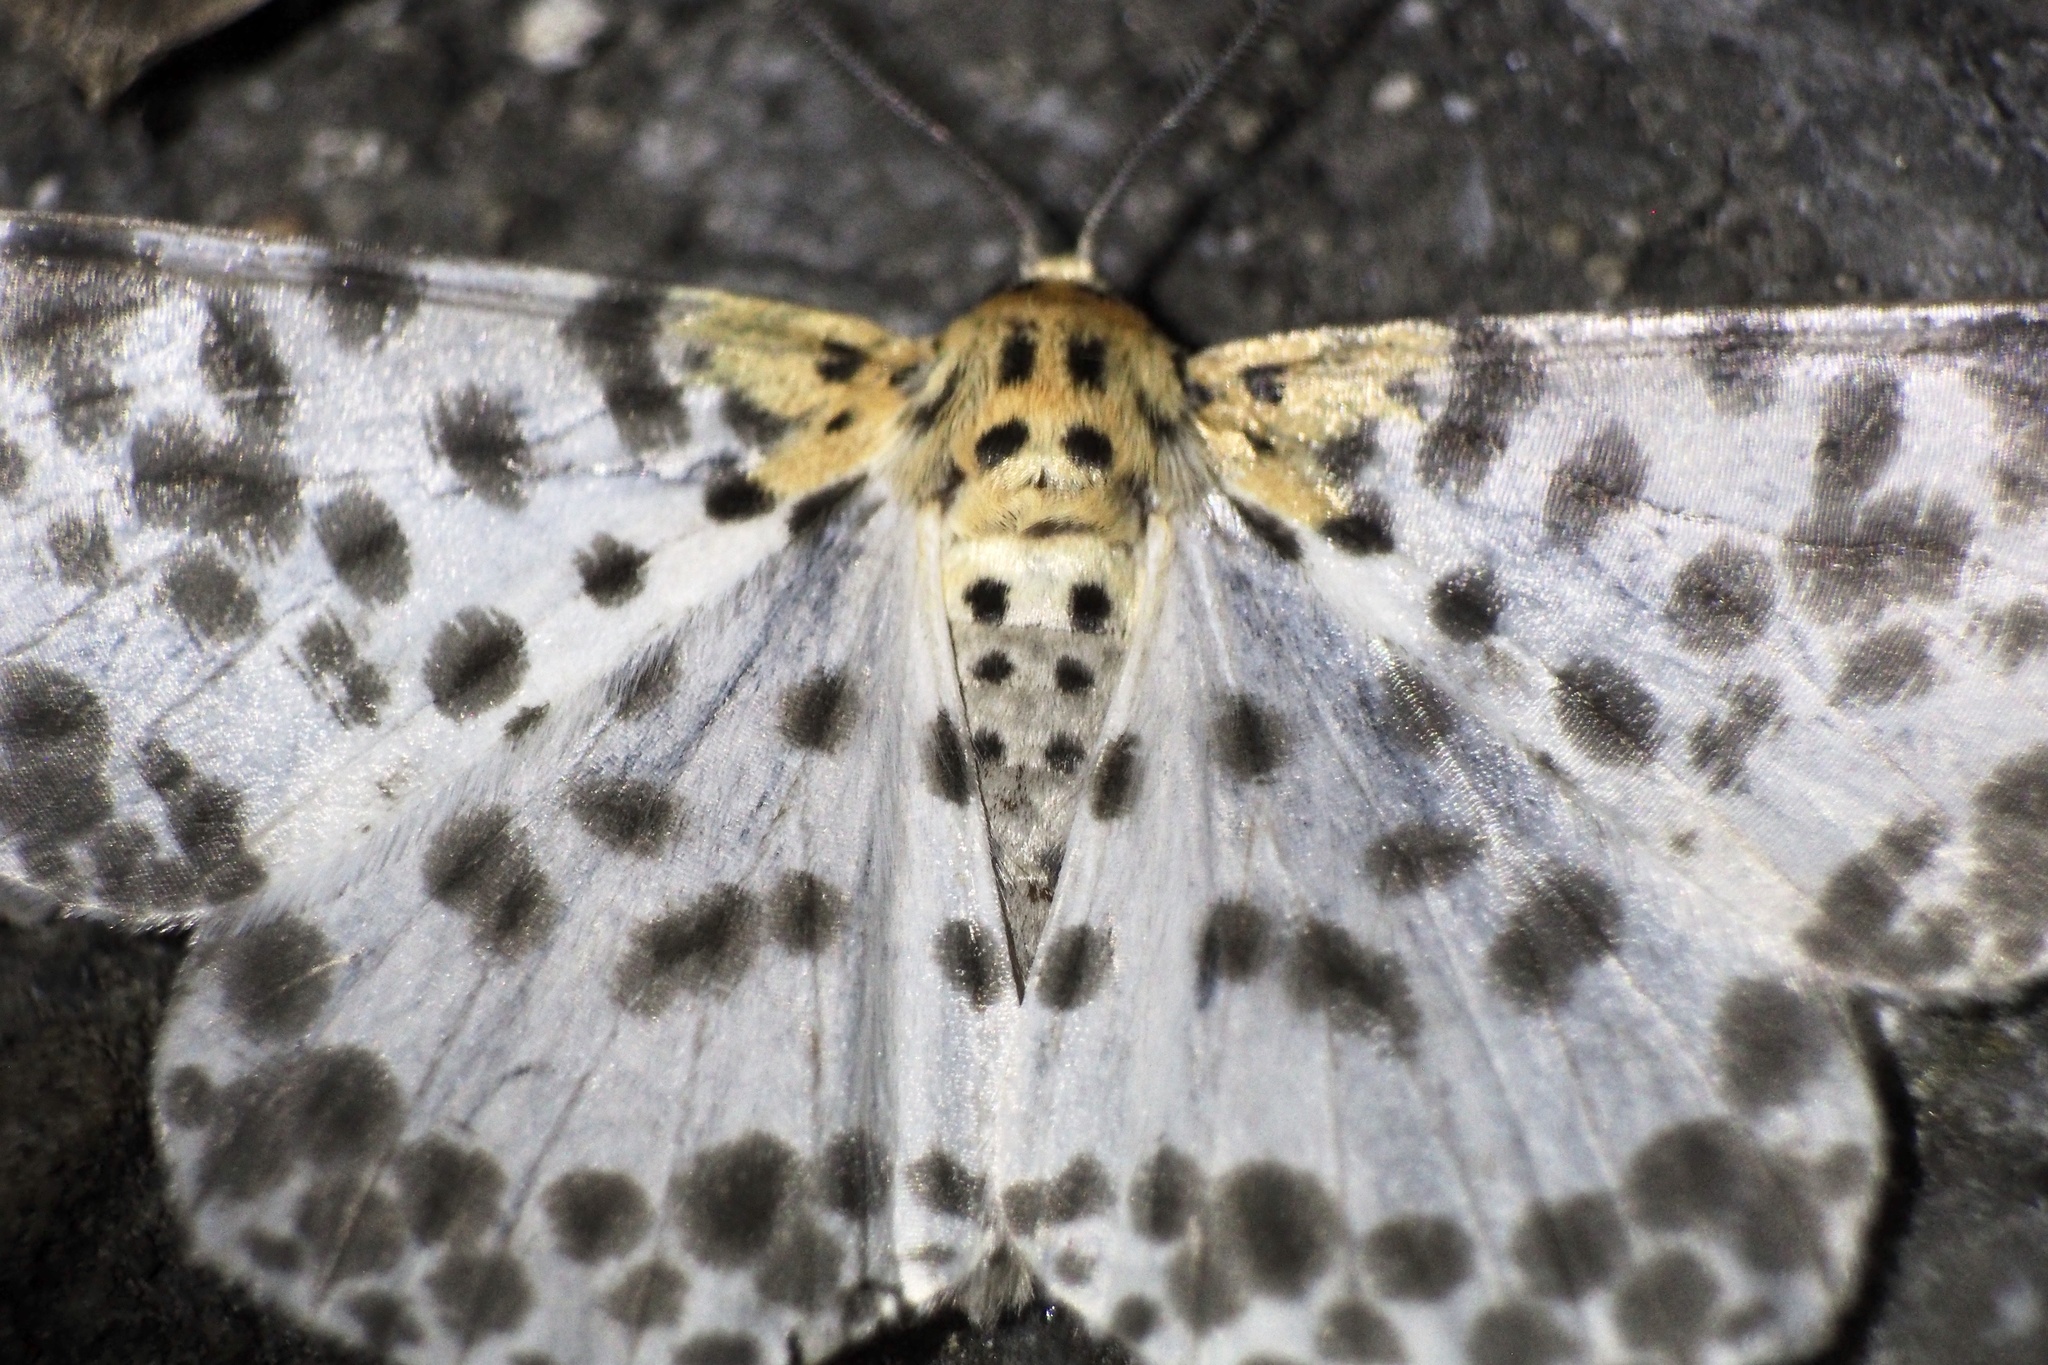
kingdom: Animalia
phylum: Arthropoda
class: Insecta
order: Lepidoptera
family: Geometridae
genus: Metabraxas
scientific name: Metabraxas clerica
